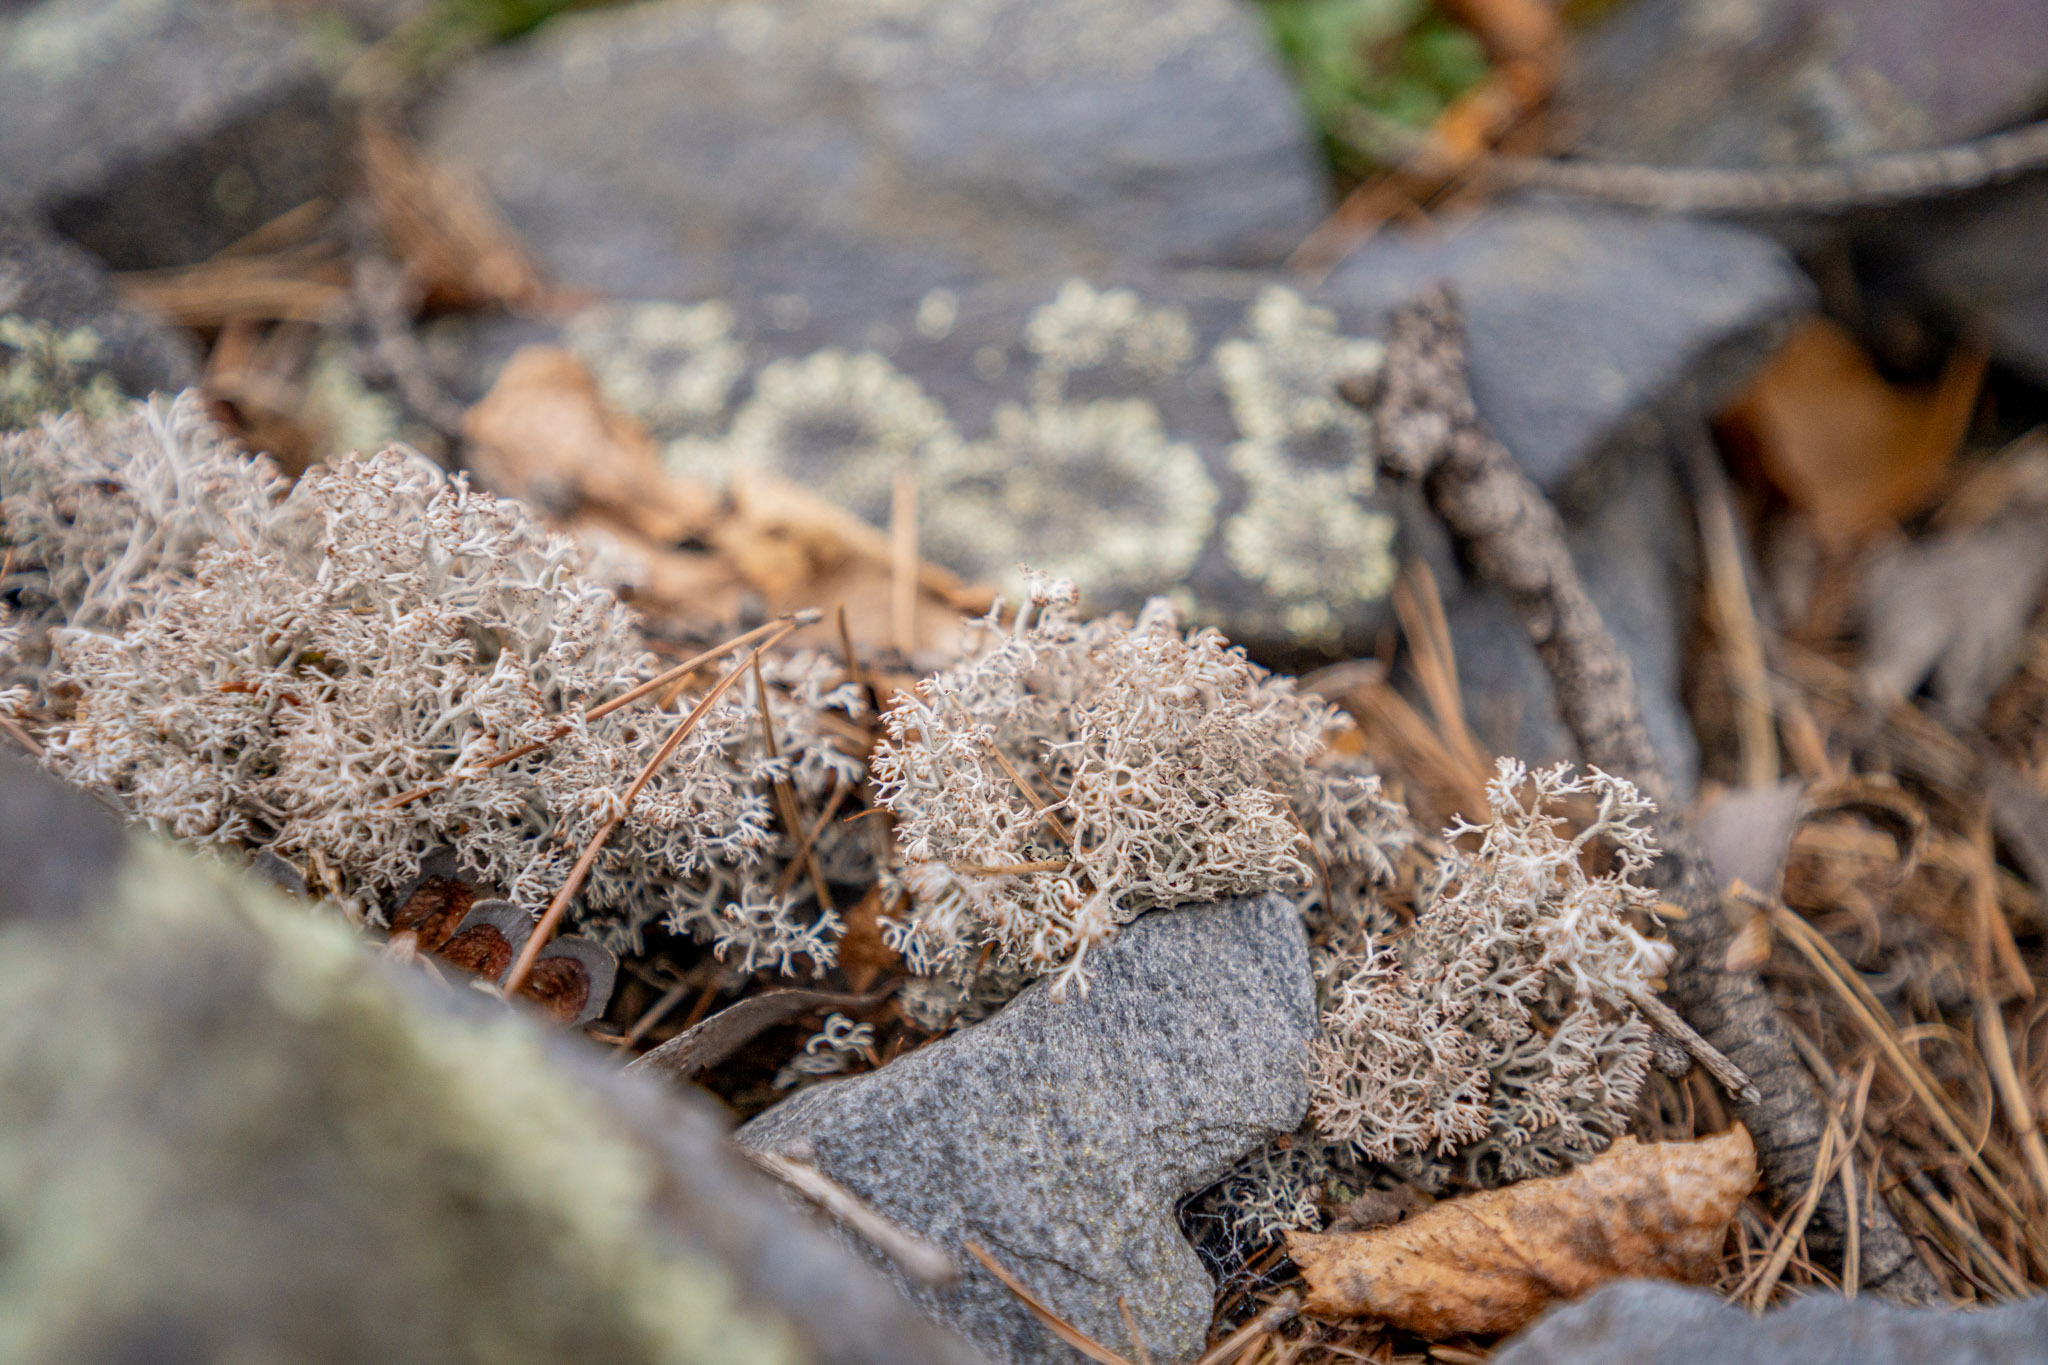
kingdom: Fungi
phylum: Ascomycota
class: Lecanoromycetes
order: Lecanorales
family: Cladoniaceae
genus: Cladonia
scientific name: Cladonia rangiferina
